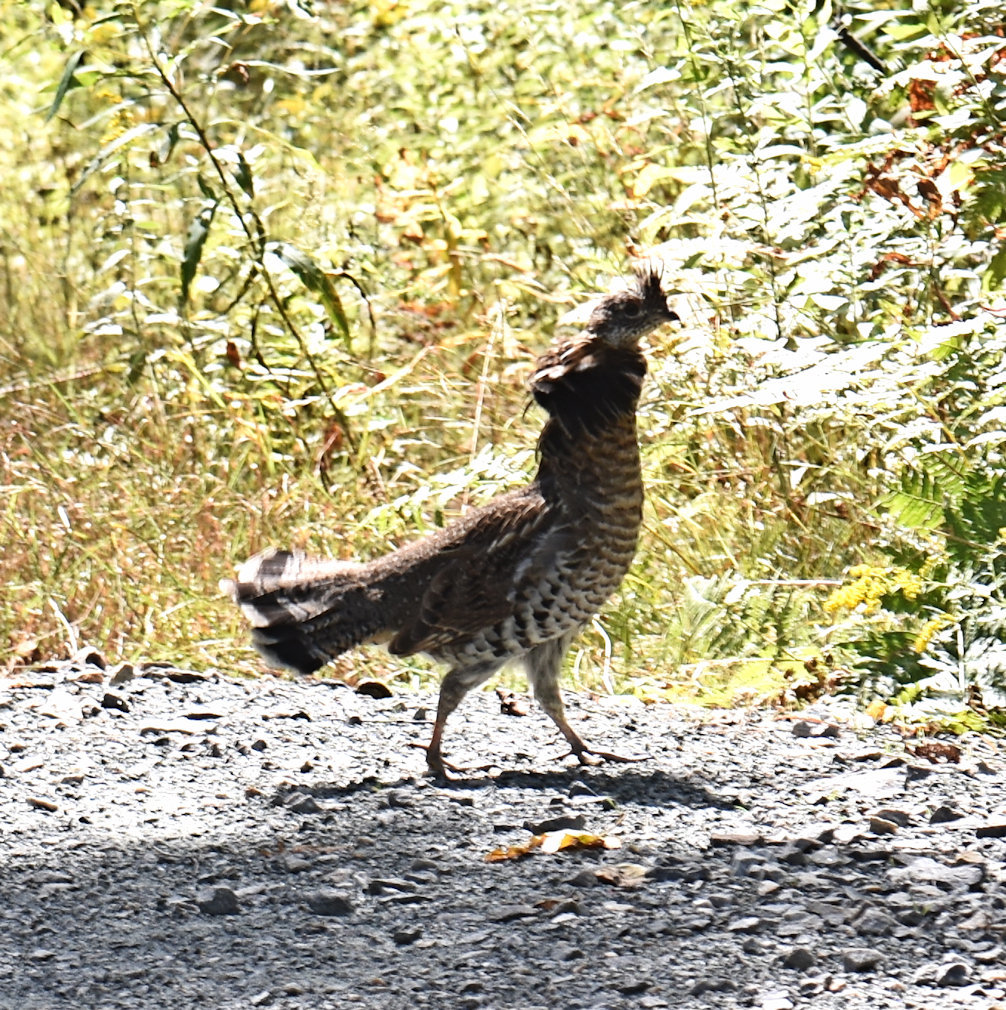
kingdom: Animalia
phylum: Chordata
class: Aves
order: Galliformes
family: Phasianidae
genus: Bonasa
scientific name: Bonasa umbellus
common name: Ruffed grouse
